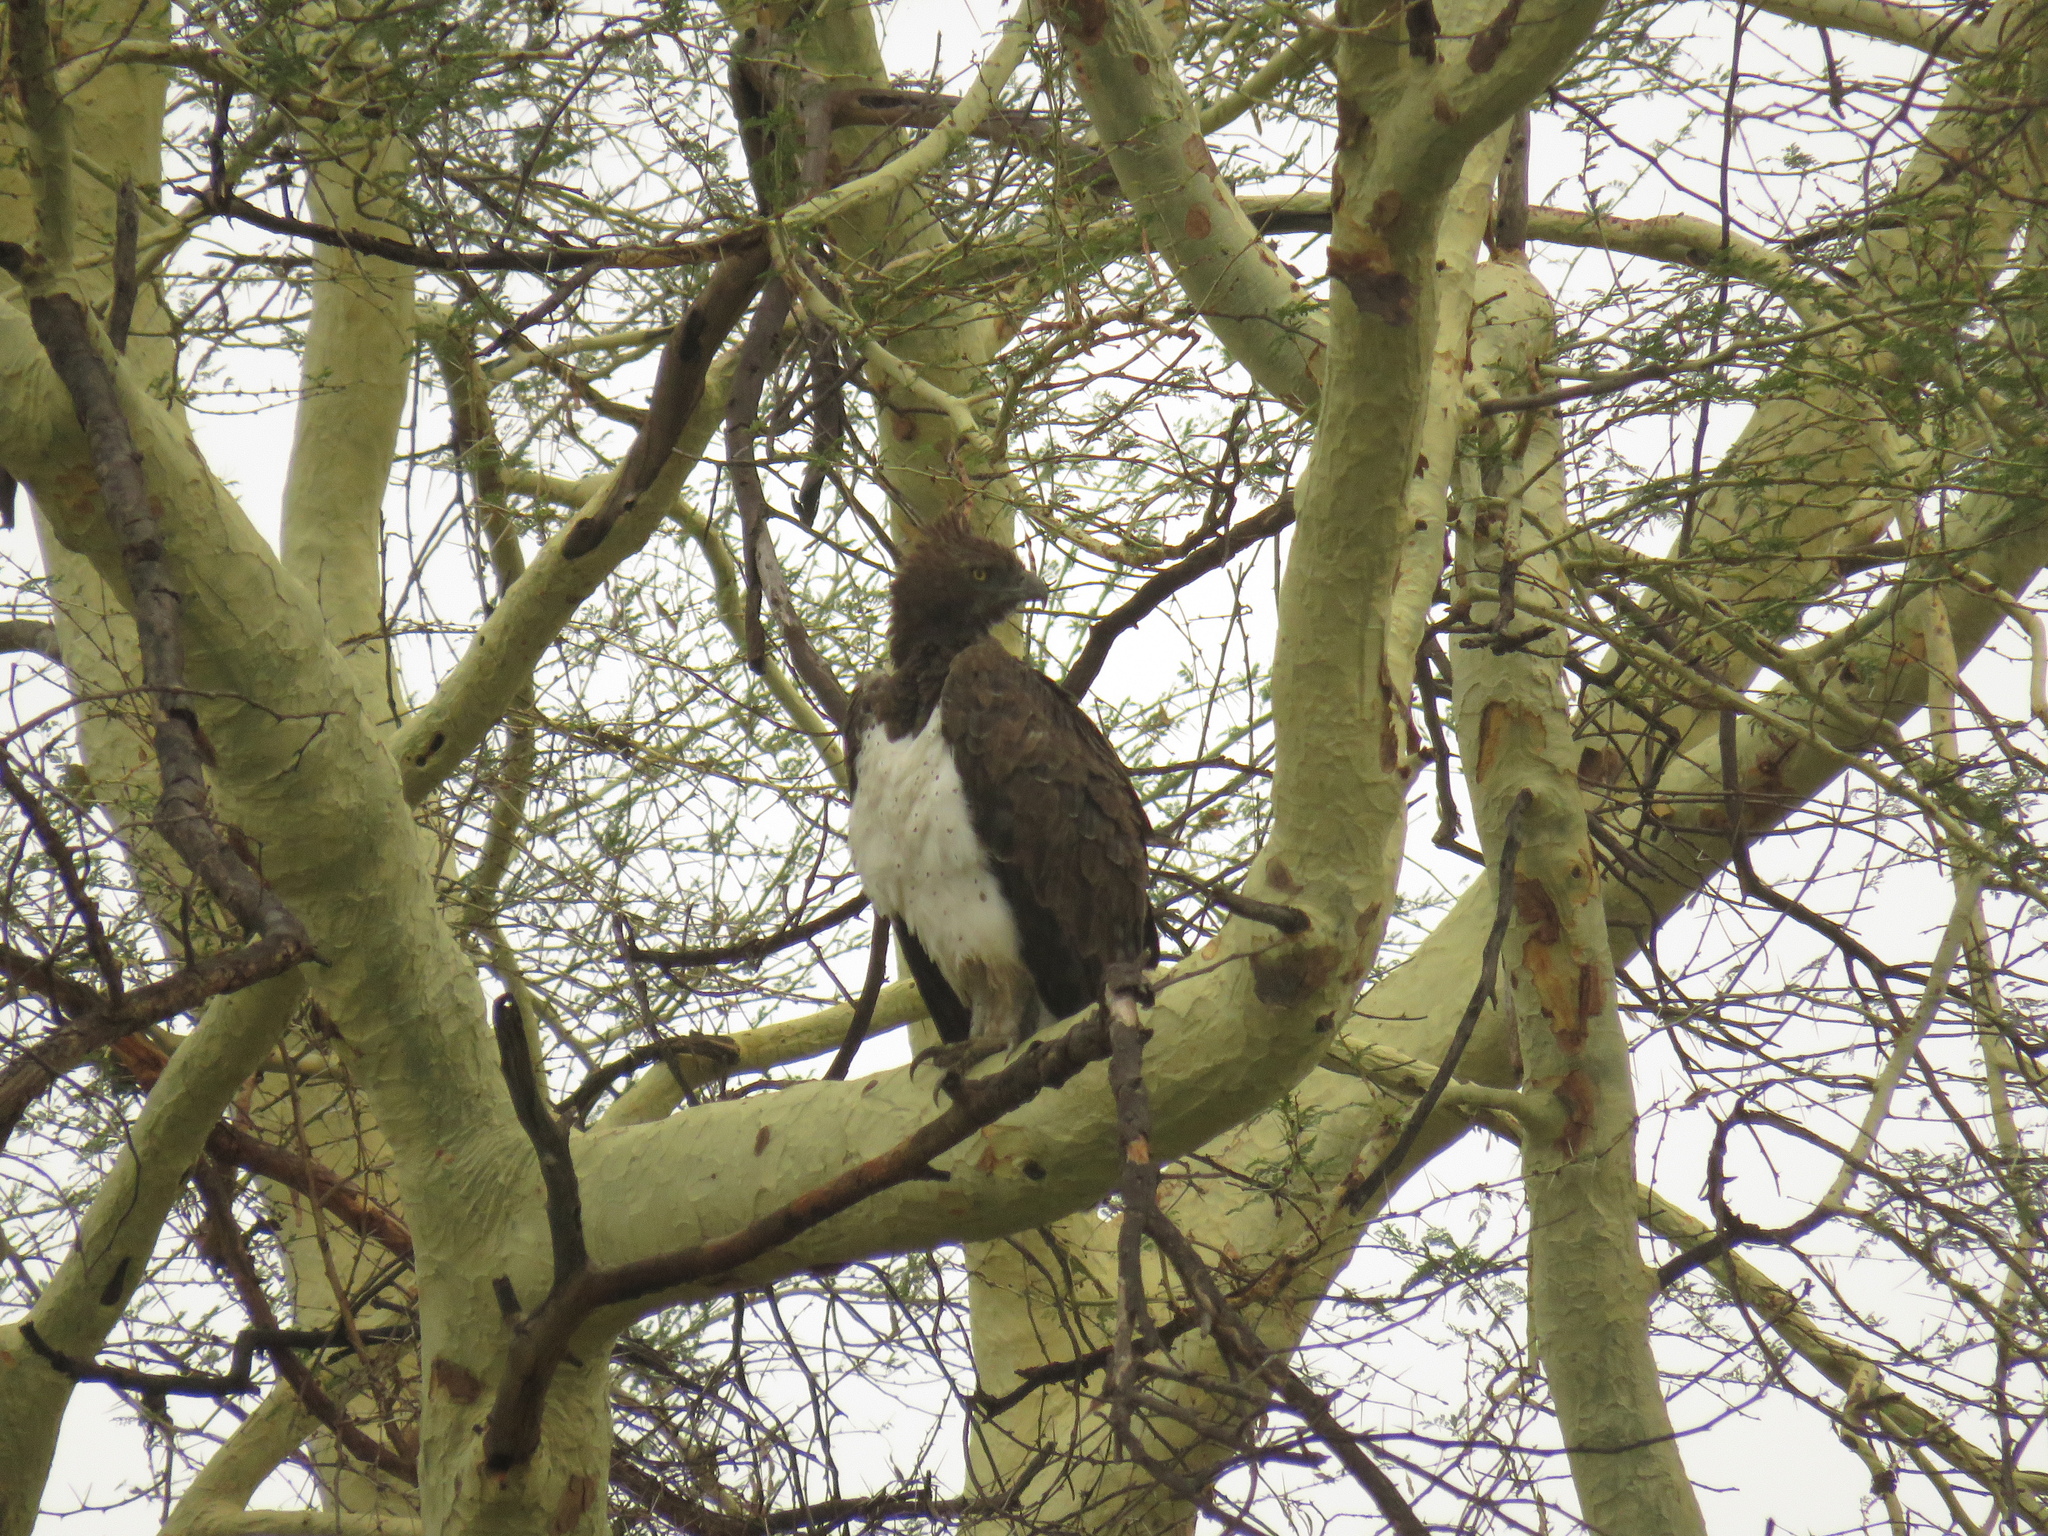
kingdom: Animalia
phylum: Chordata
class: Aves
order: Accipitriformes
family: Accipitridae
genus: Polemaetus
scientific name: Polemaetus bellicosus
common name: Martial eagle
